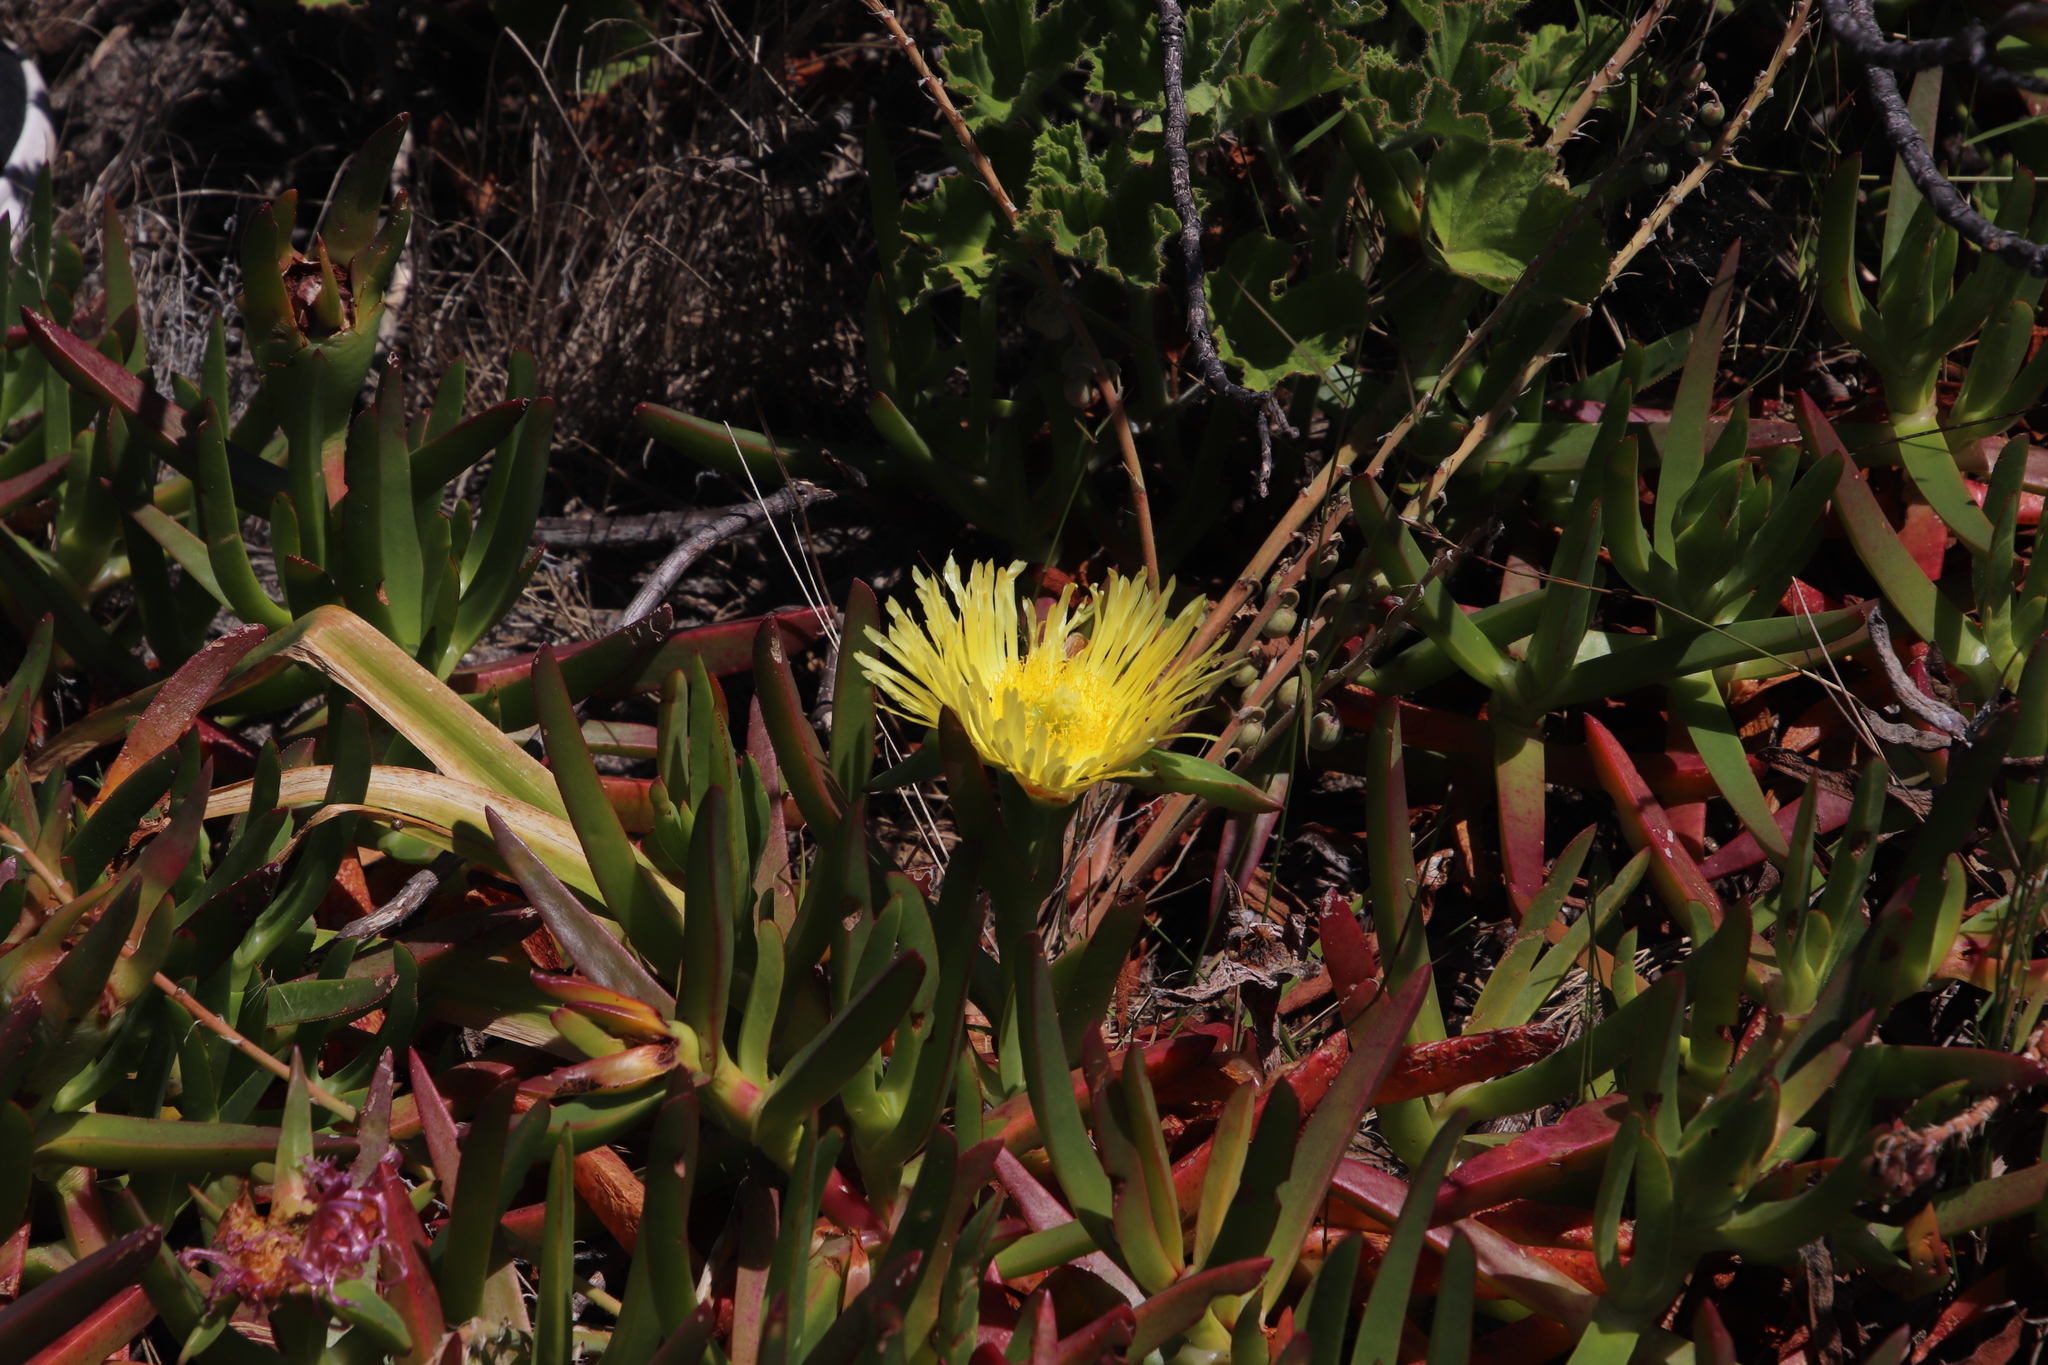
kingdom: Plantae
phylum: Tracheophyta
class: Magnoliopsida
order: Caryophyllales
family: Aizoaceae
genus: Carpobrotus
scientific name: Carpobrotus edulis
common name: Hottentot-fig
